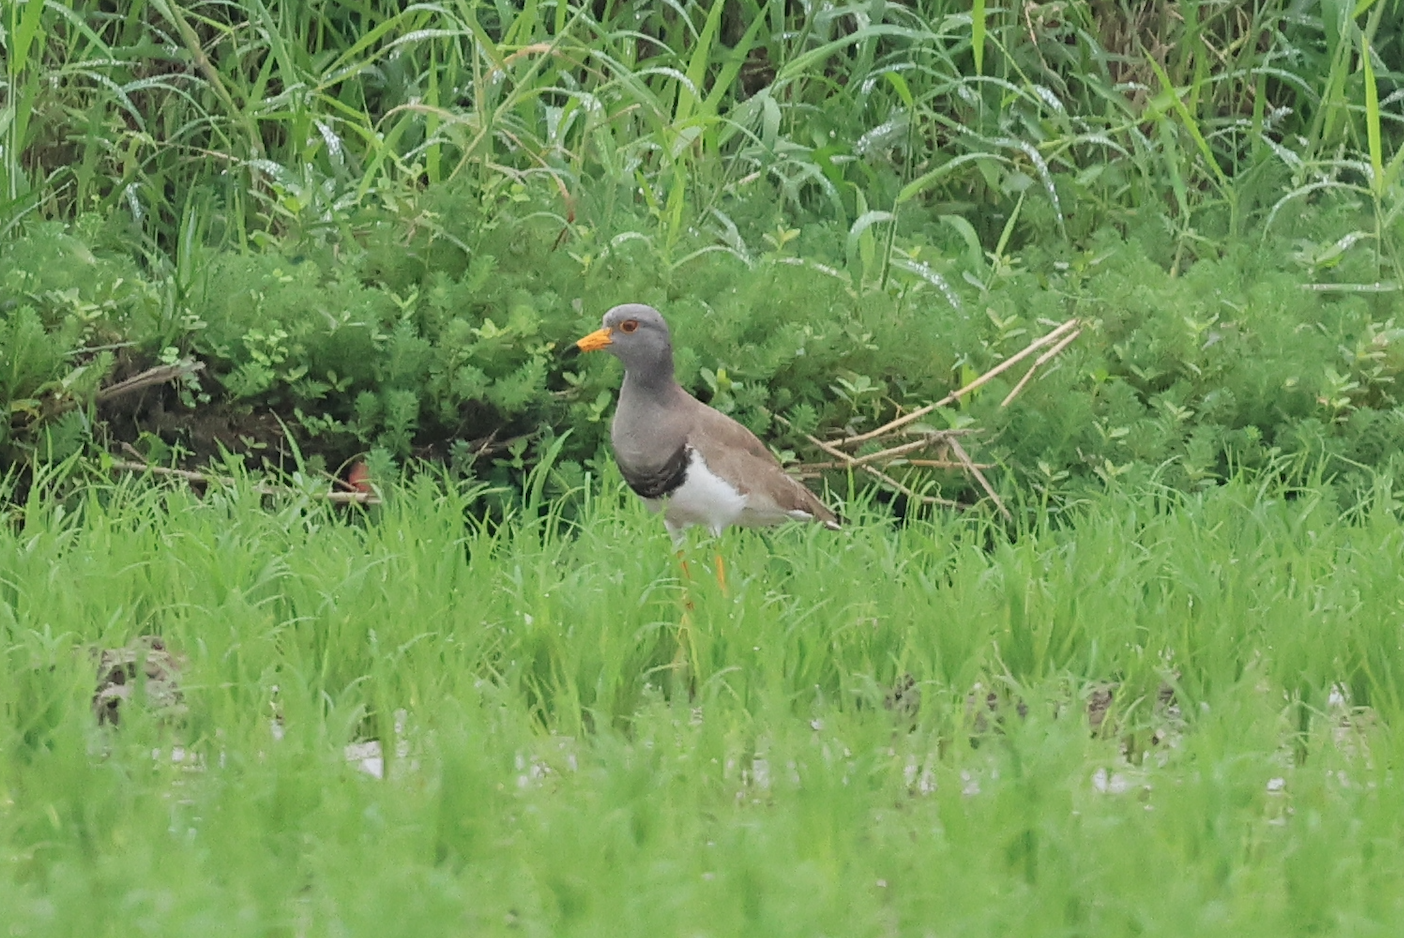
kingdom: Animalia
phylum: Chordata
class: Aves
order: Charadriiformes
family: Charadriidae
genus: Vanellus
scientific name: Vanellus cinereus
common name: Grey-headed lapwing
